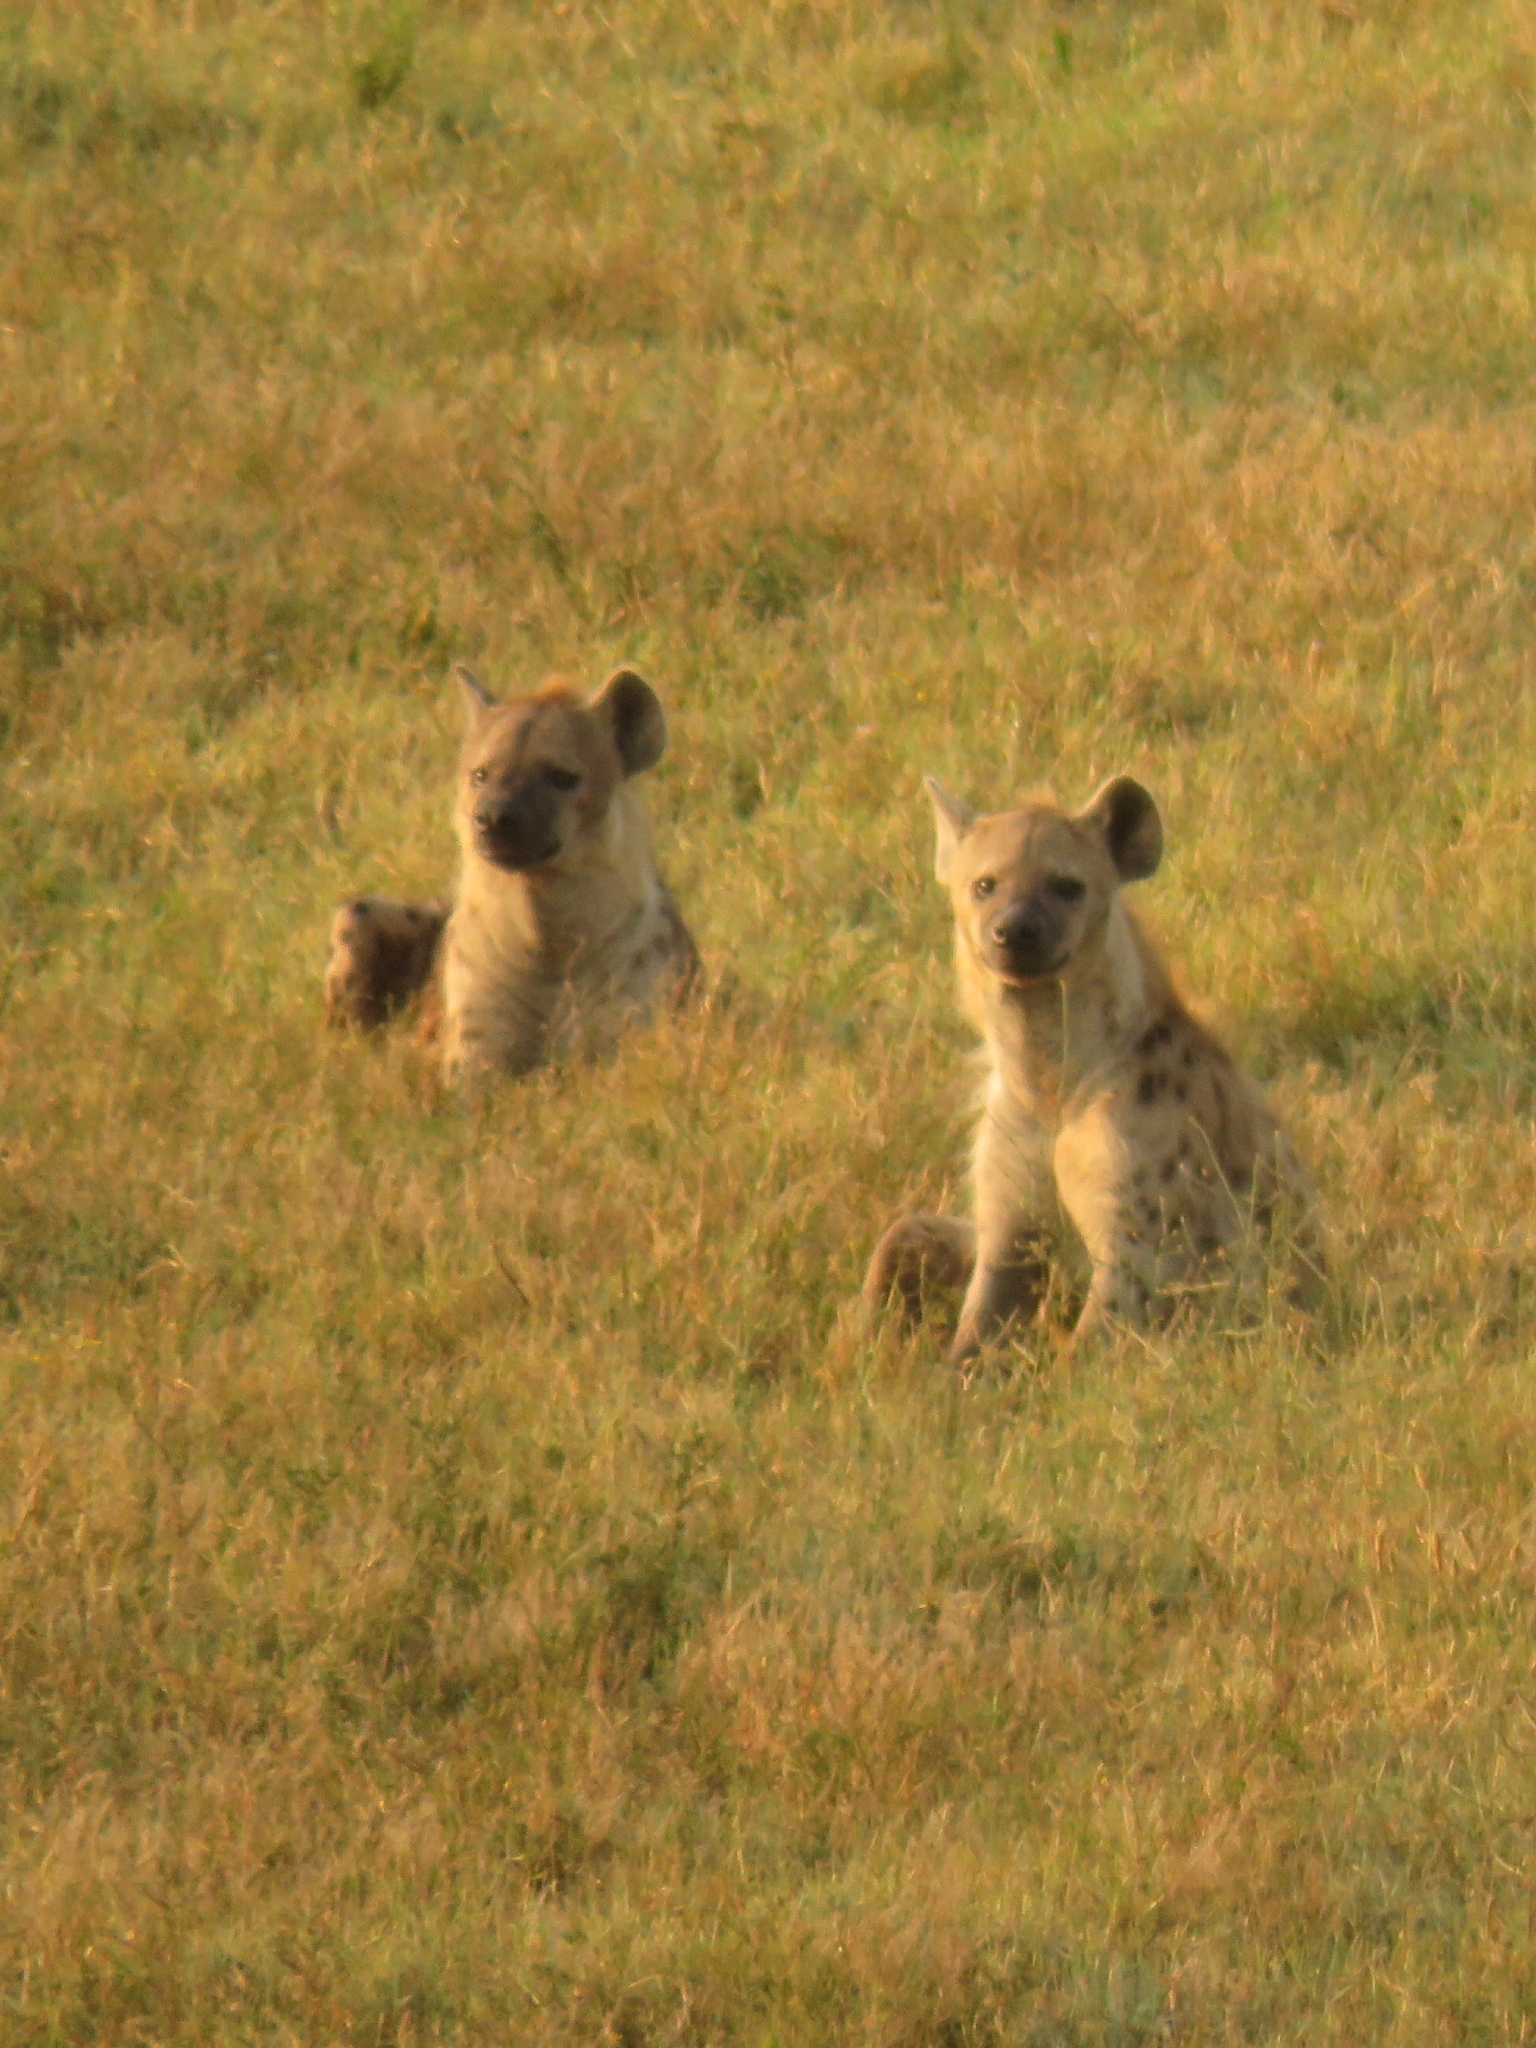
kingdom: Animalia
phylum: Chordata
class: Mammalia
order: Carnivora
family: Hyaenidae
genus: Crocuta
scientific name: Crocuta crocuta
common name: Spotted hyaena
